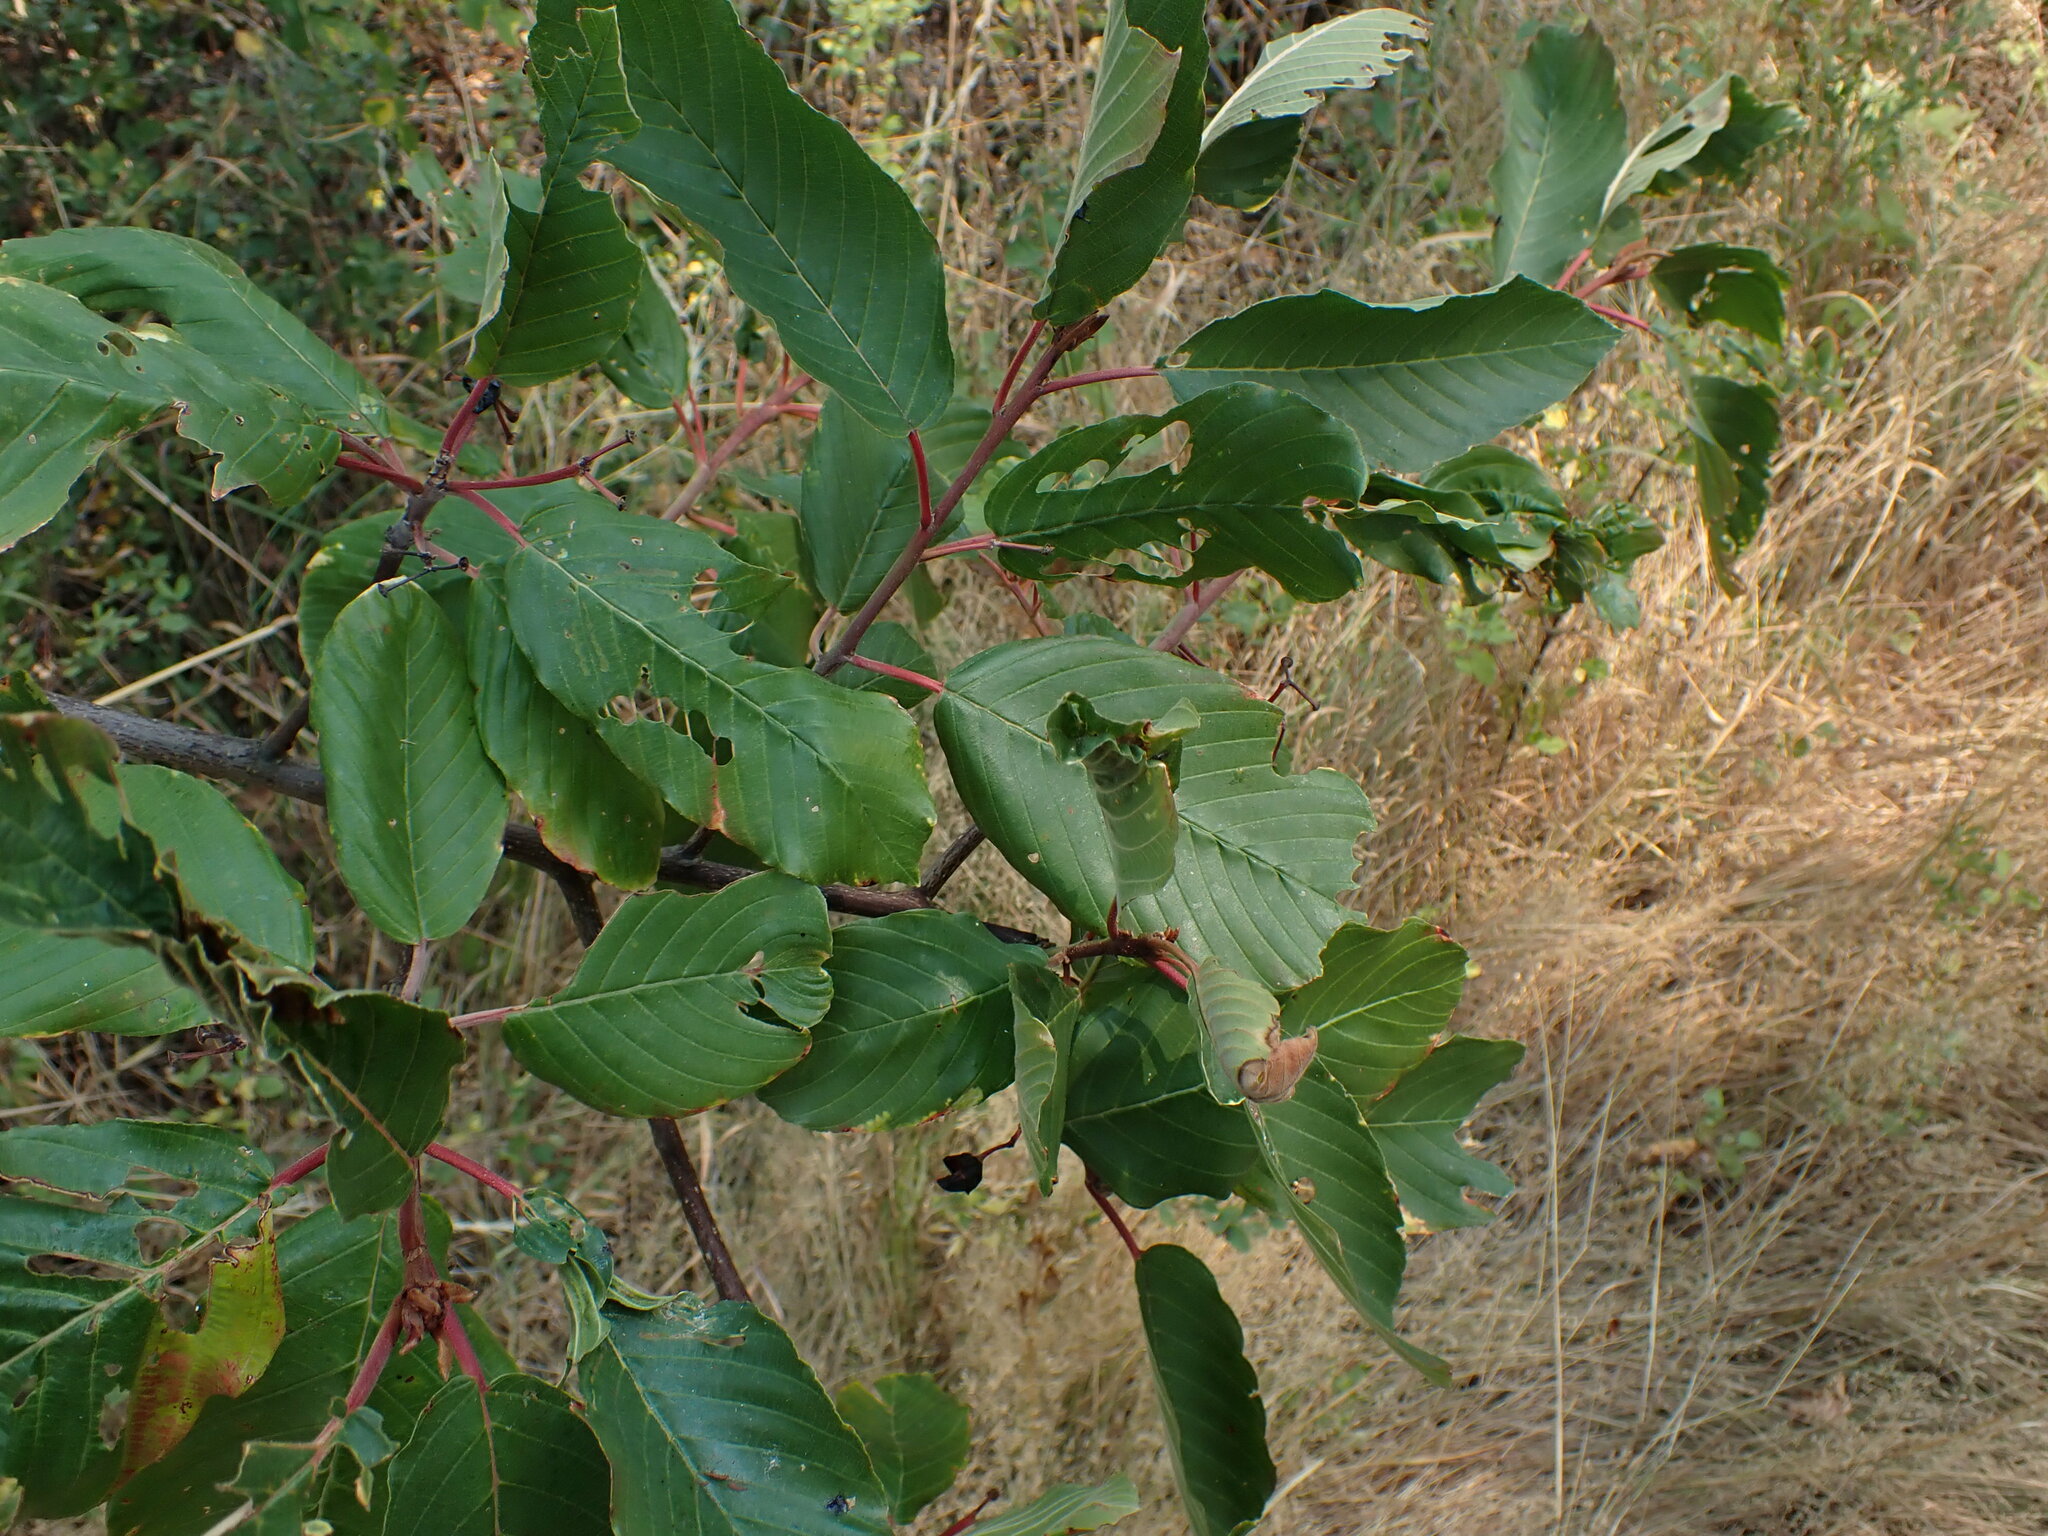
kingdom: Plantae
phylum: Tracheophyta
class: Magnoliopsida
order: Rosales
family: Rhamnaceae
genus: Frangula
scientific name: Frangula purshiana
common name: Cascara buckthorn
